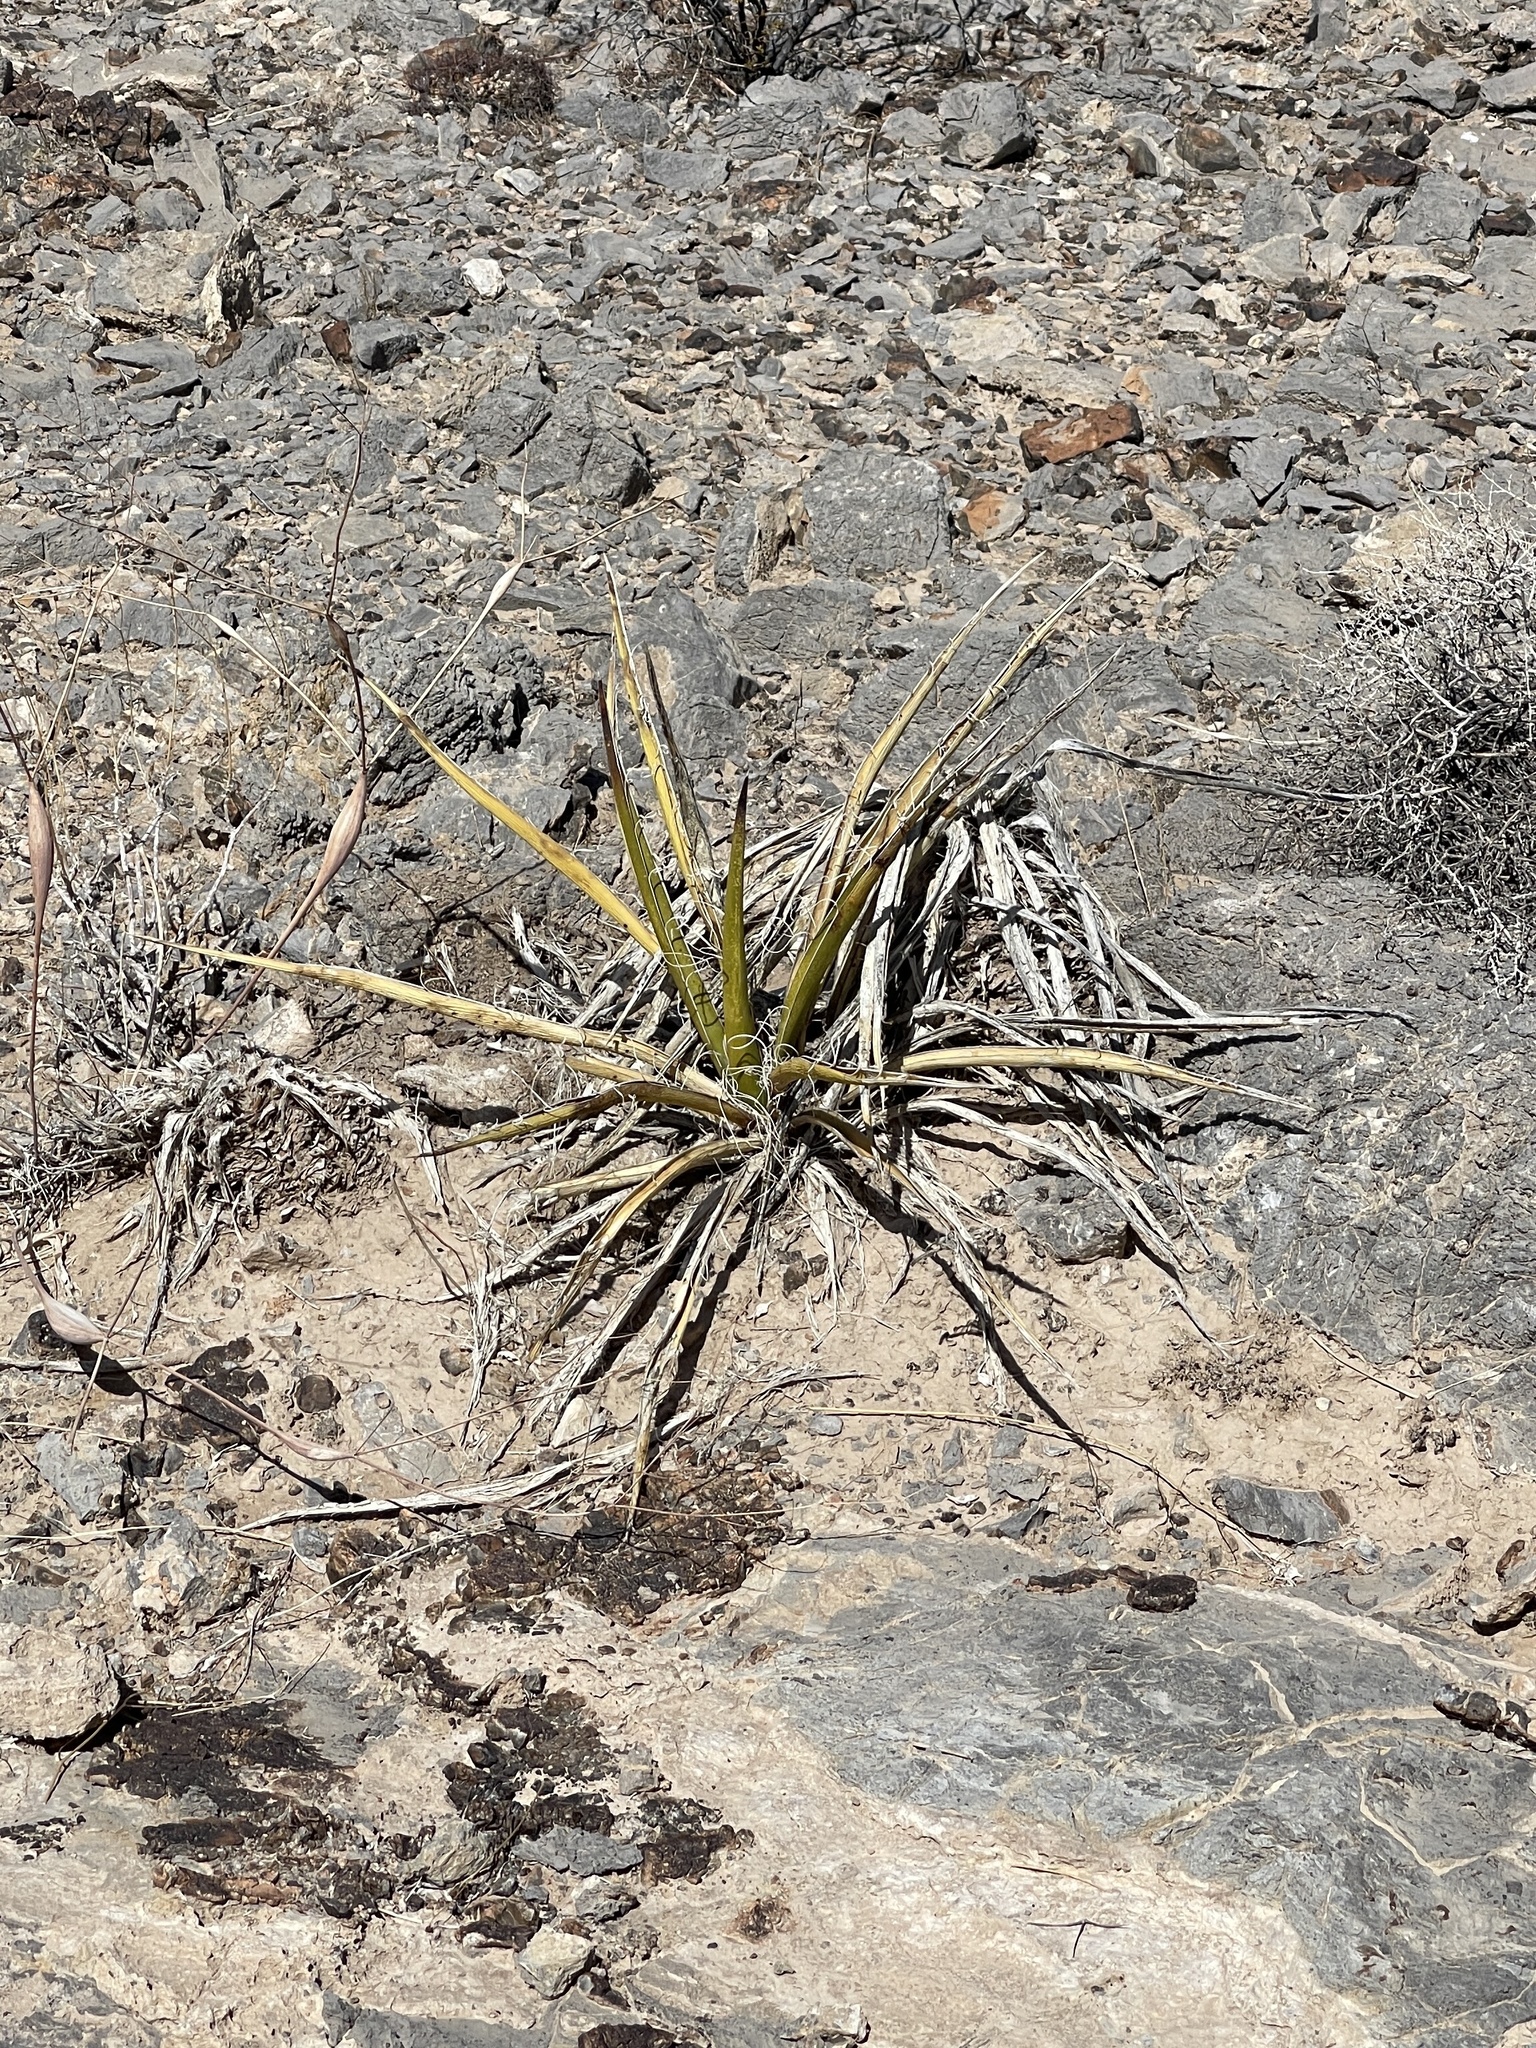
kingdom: Plantae
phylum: Tracheophyta
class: Liliopsida
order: Asparagales
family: Asparagaceae
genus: Yucca
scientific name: Yucca schidigera
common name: Mojave yucca
